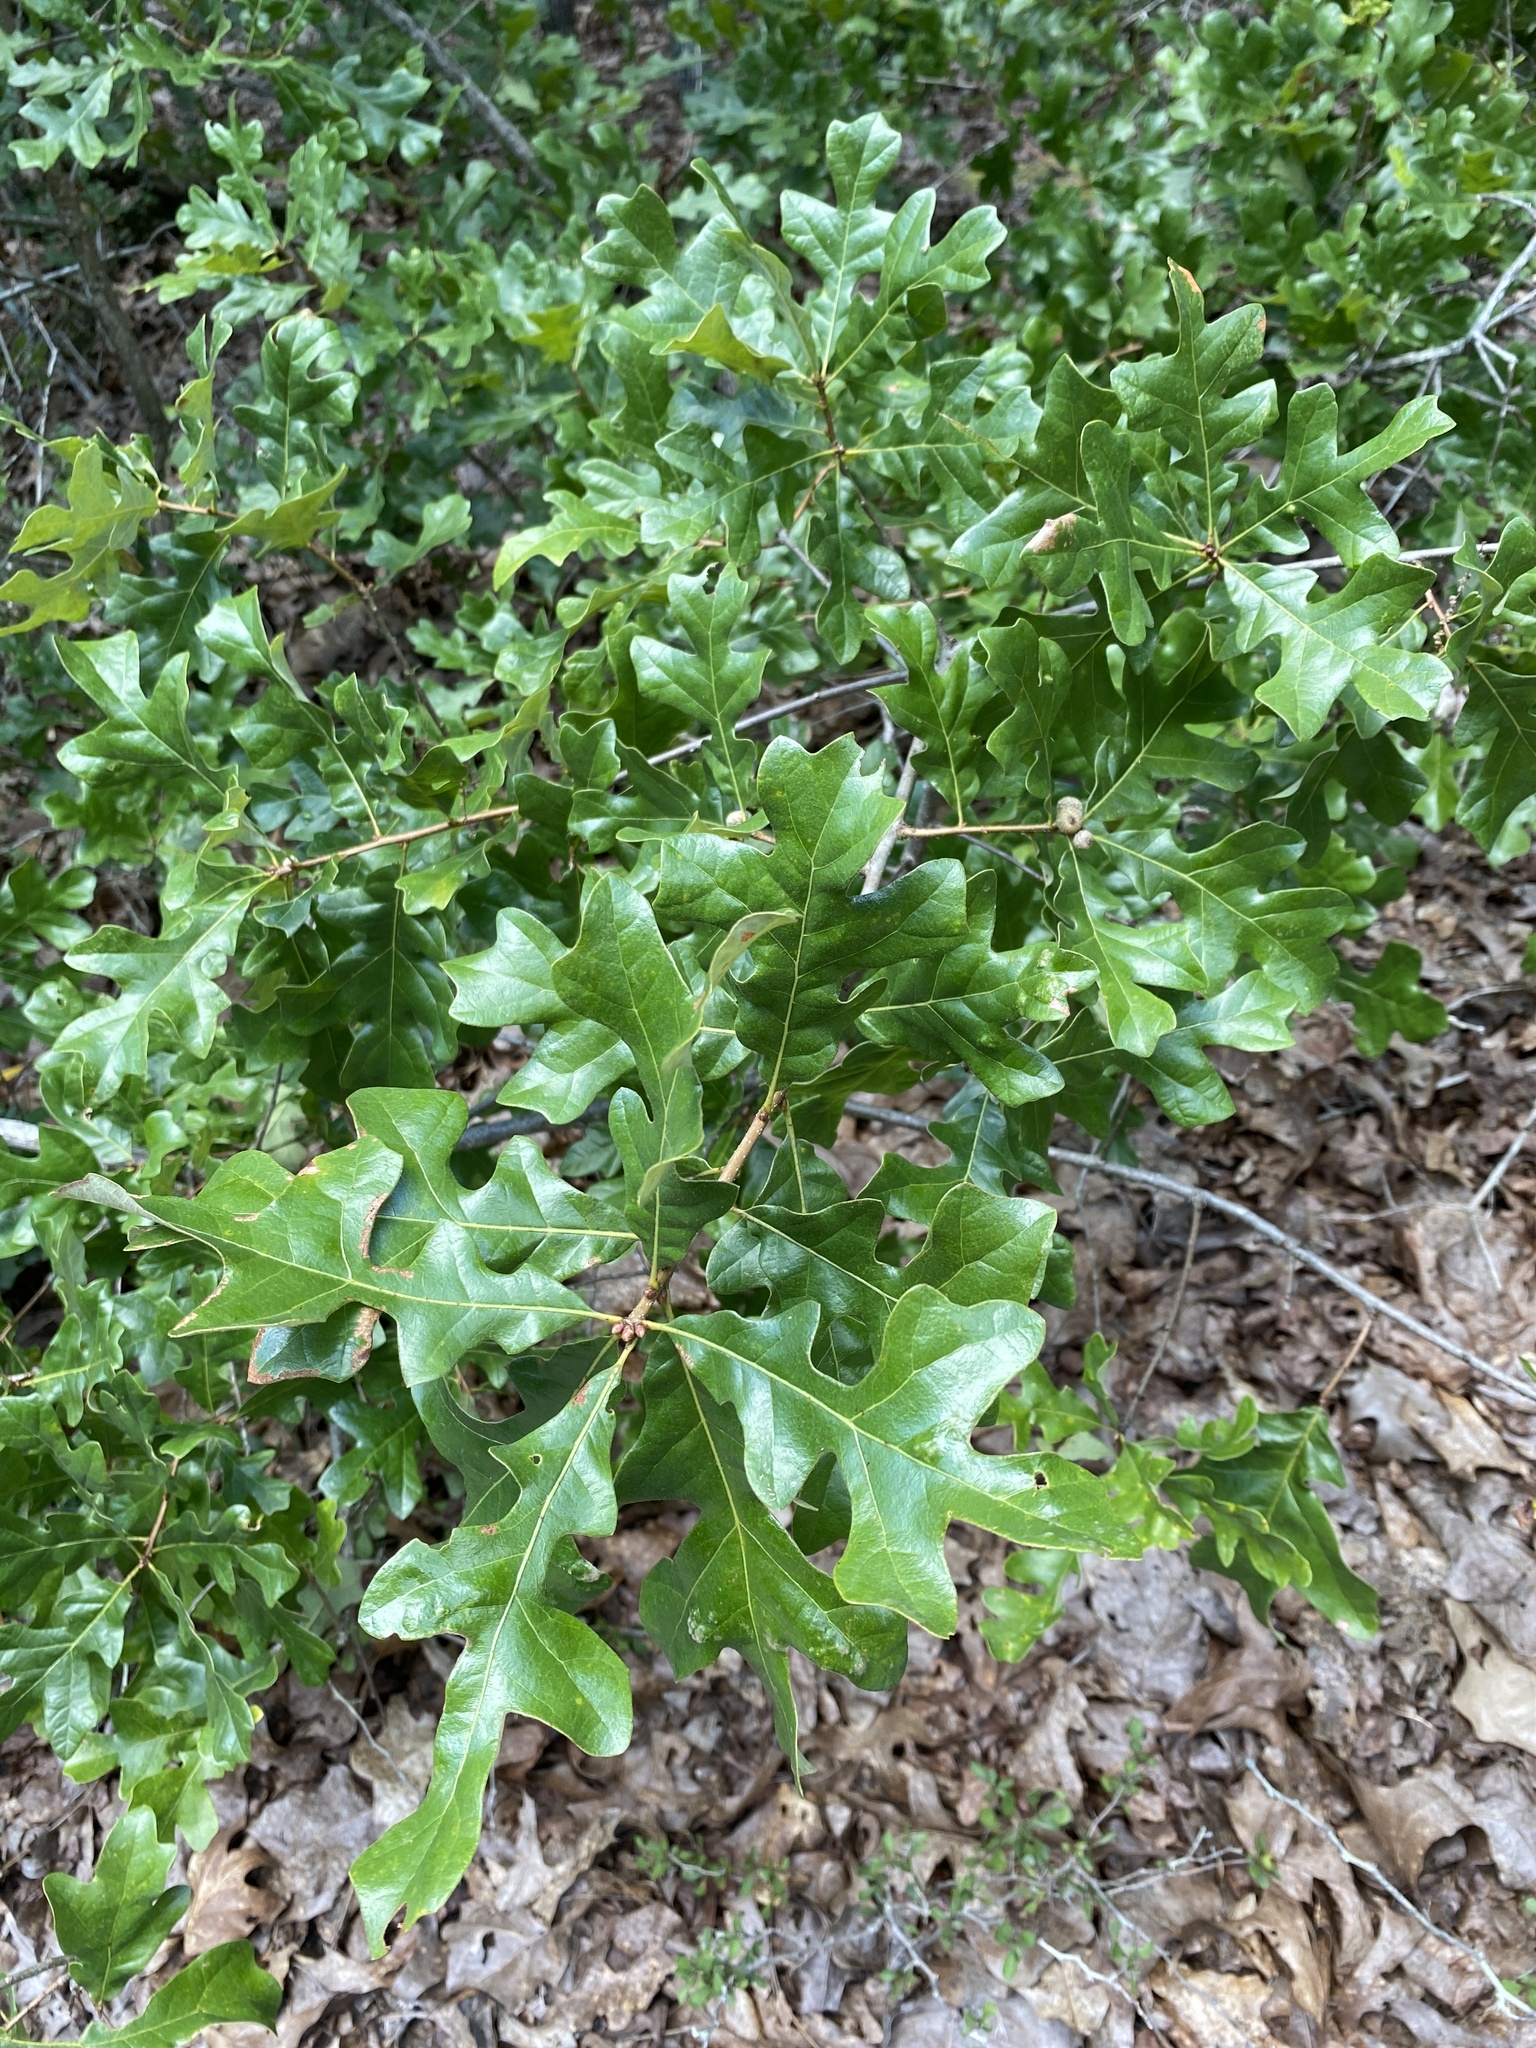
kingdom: Plantae
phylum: Tracheophyta
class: Magnoliopsida
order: Fagales
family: Fagaceae
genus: Quercus
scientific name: Quercus margaretiae
